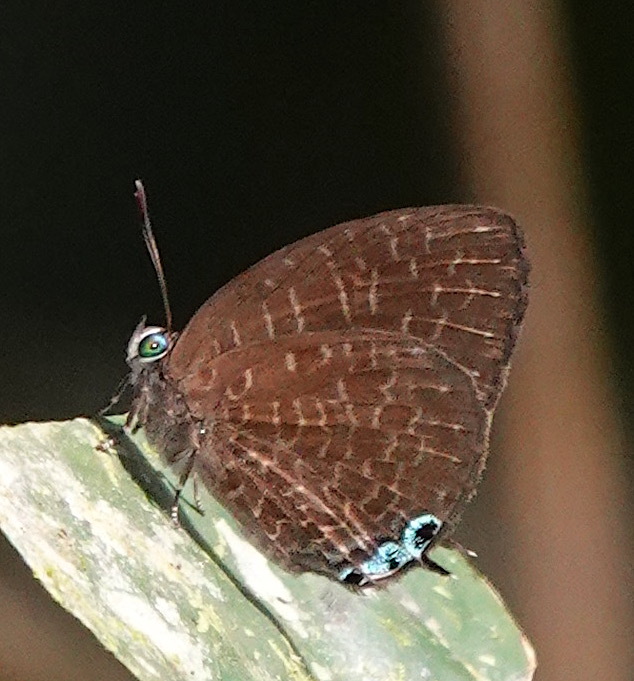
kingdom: Animalia
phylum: Arthropoda
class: Insecta
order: Lepidoptera
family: Lycaenidae
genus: Arhopala
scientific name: Arhopala democritus
